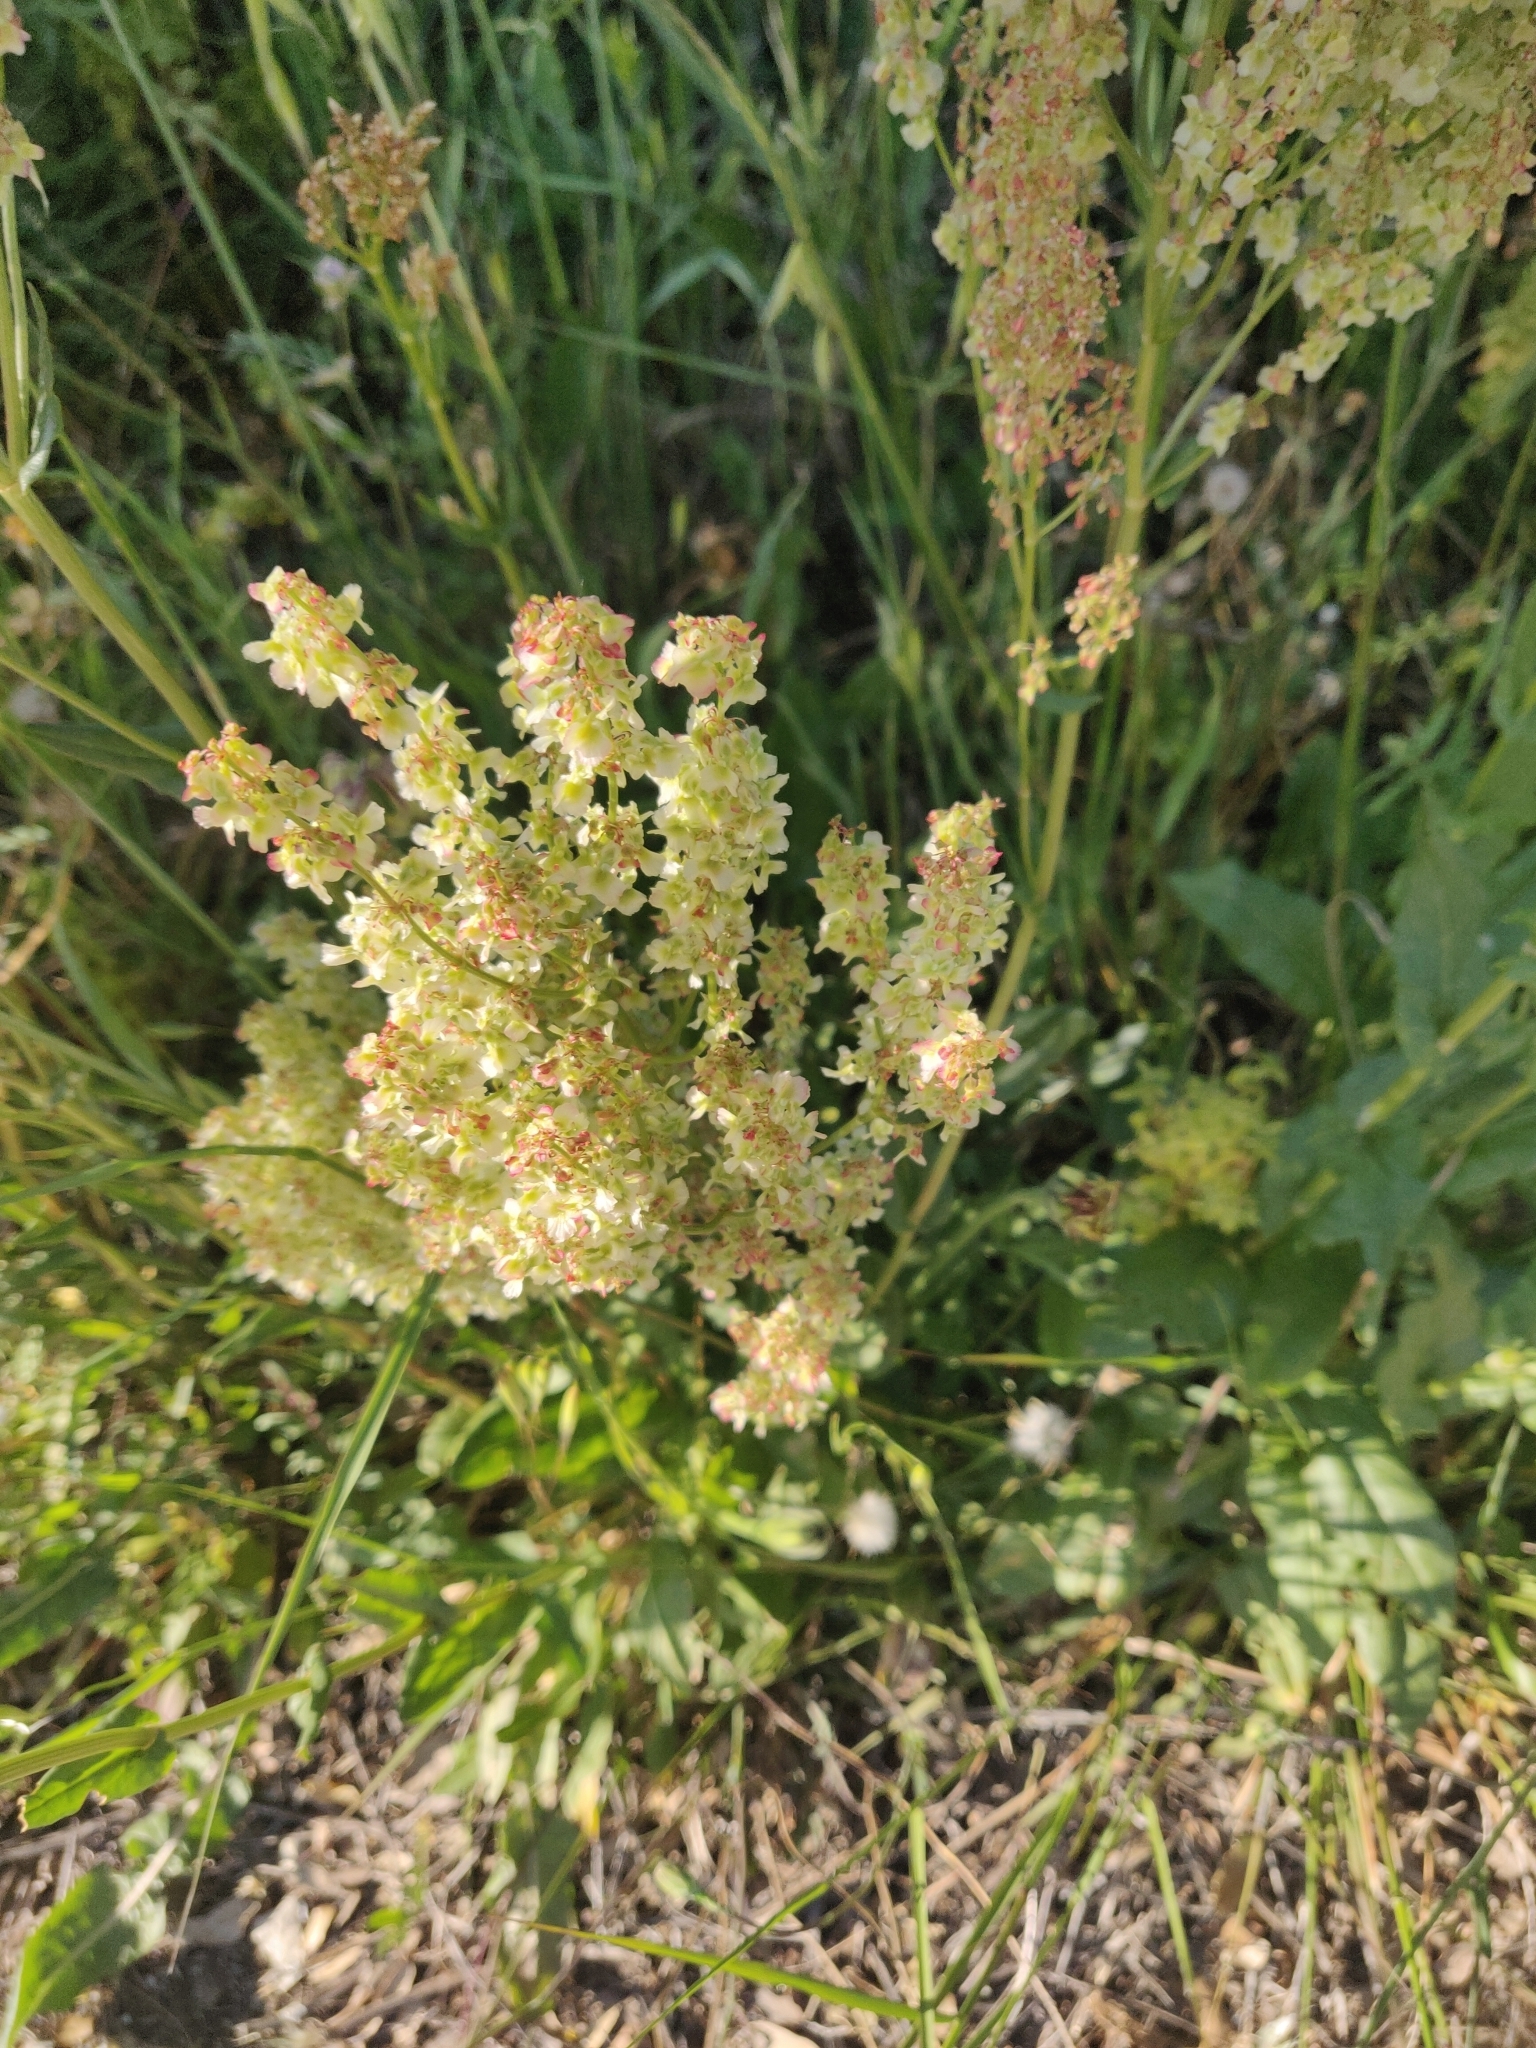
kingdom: Plantae
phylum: Tracheophyta
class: Magnoliopsida
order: Caryophyllales
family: Polygonaceae
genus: Rumex
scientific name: Rumex thyrsoides
